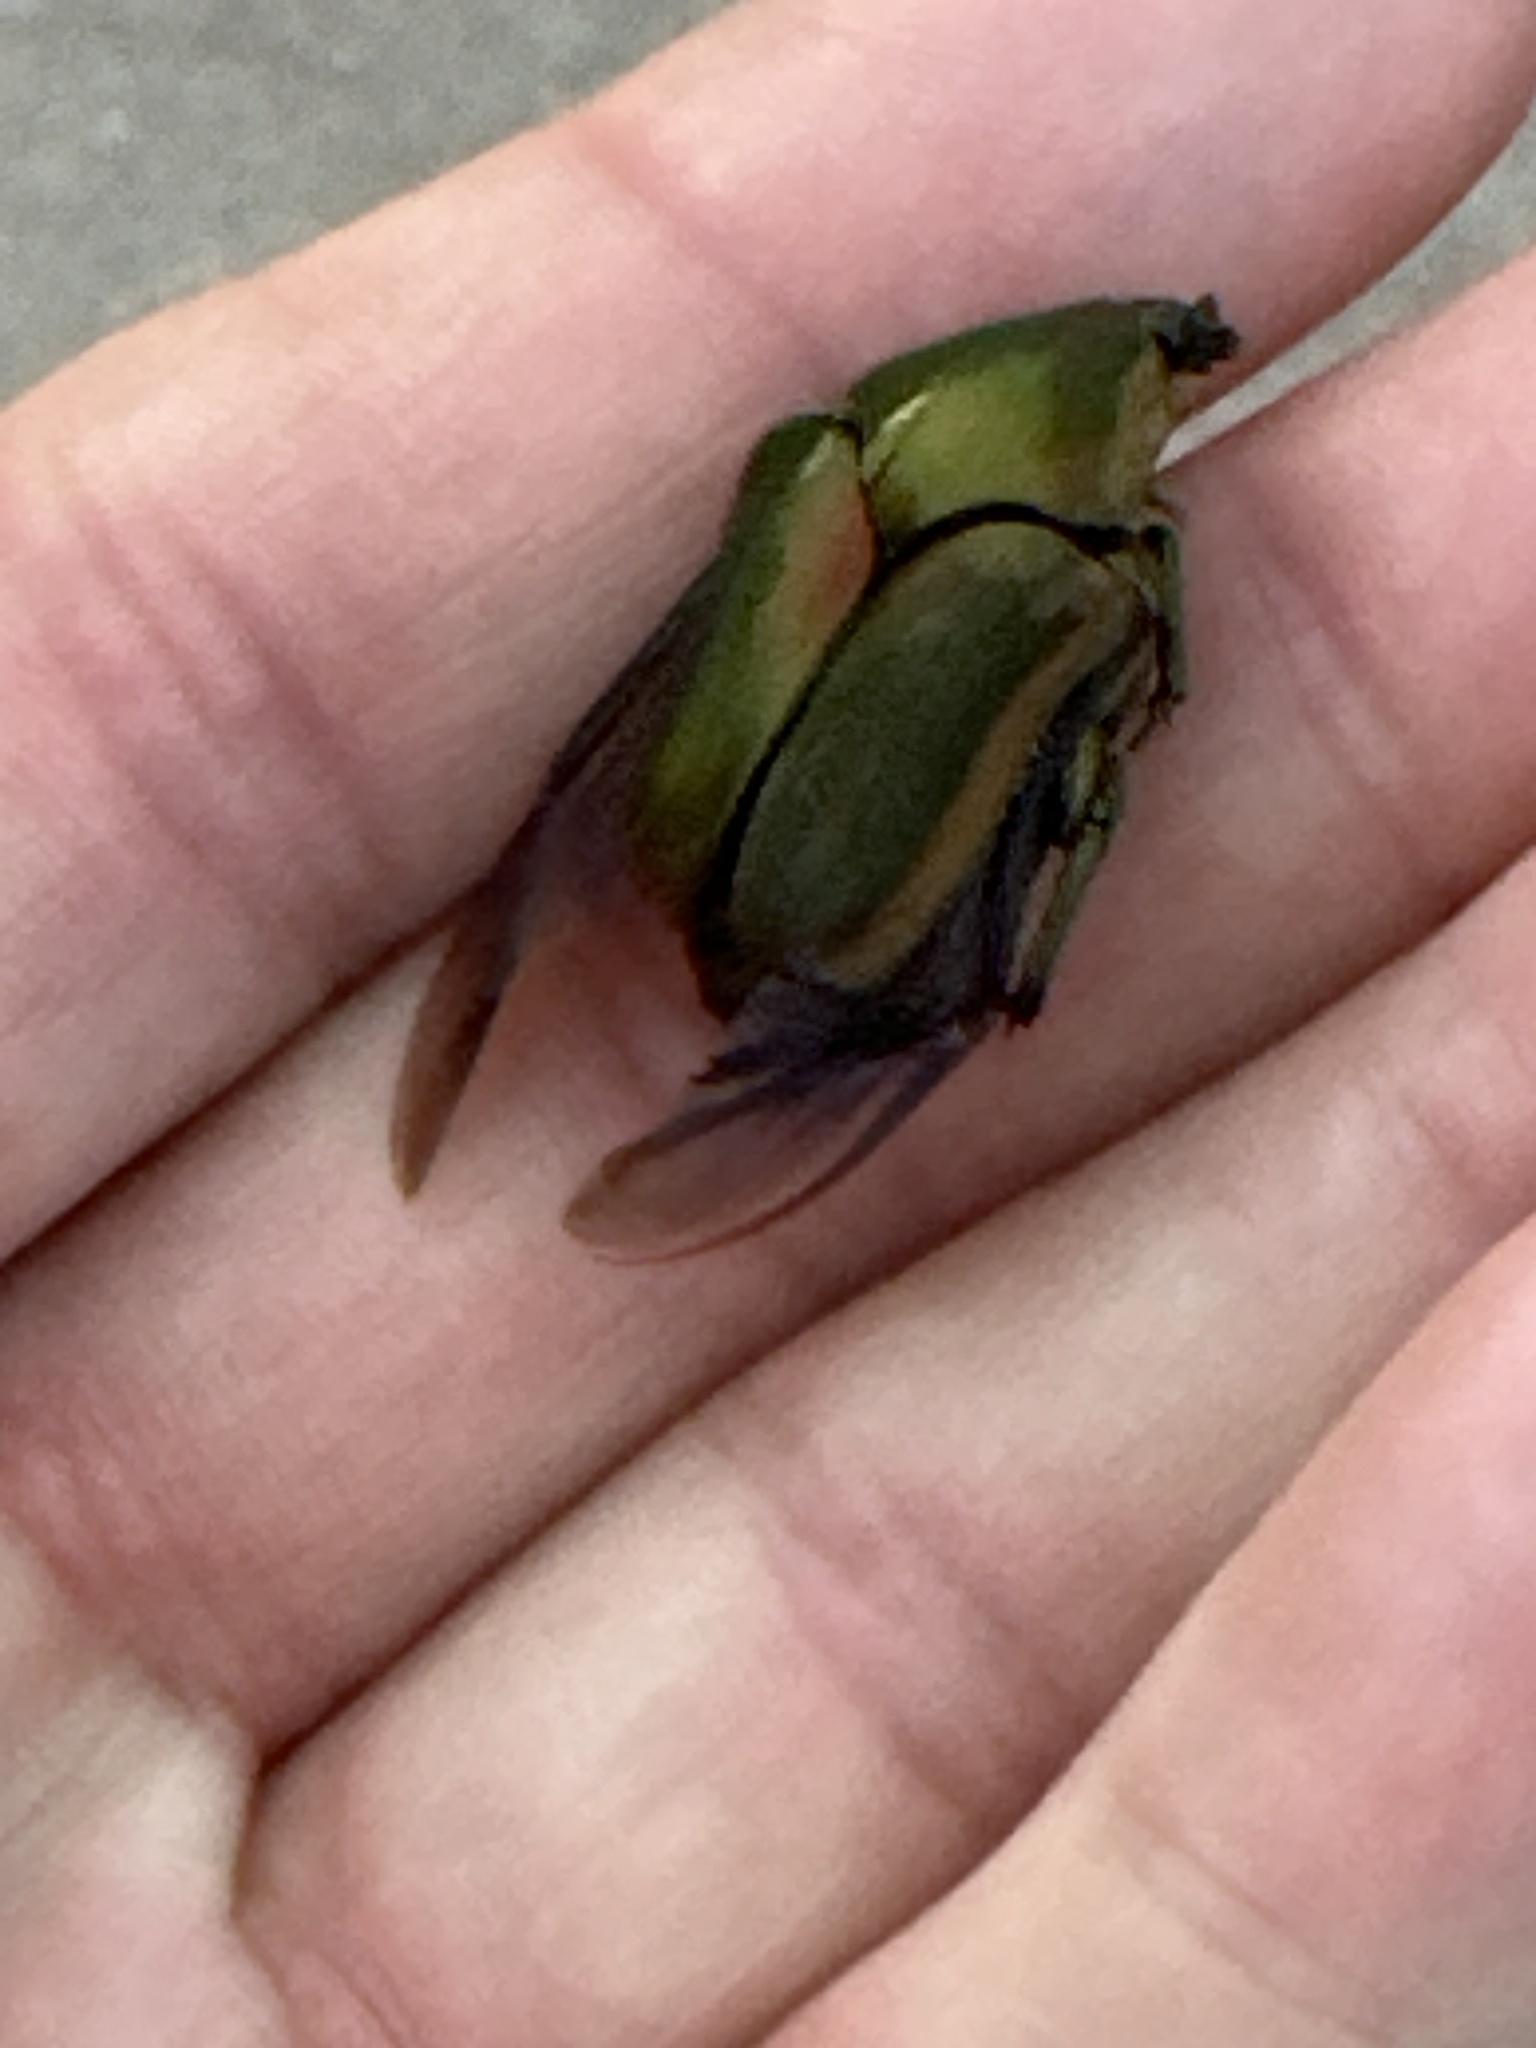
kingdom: Animalia
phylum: Arthropoda
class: Insecta
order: Coleoptera
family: Scarabaeidae
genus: Cotinis
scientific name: Cotinis nitida
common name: Common green june beetle
